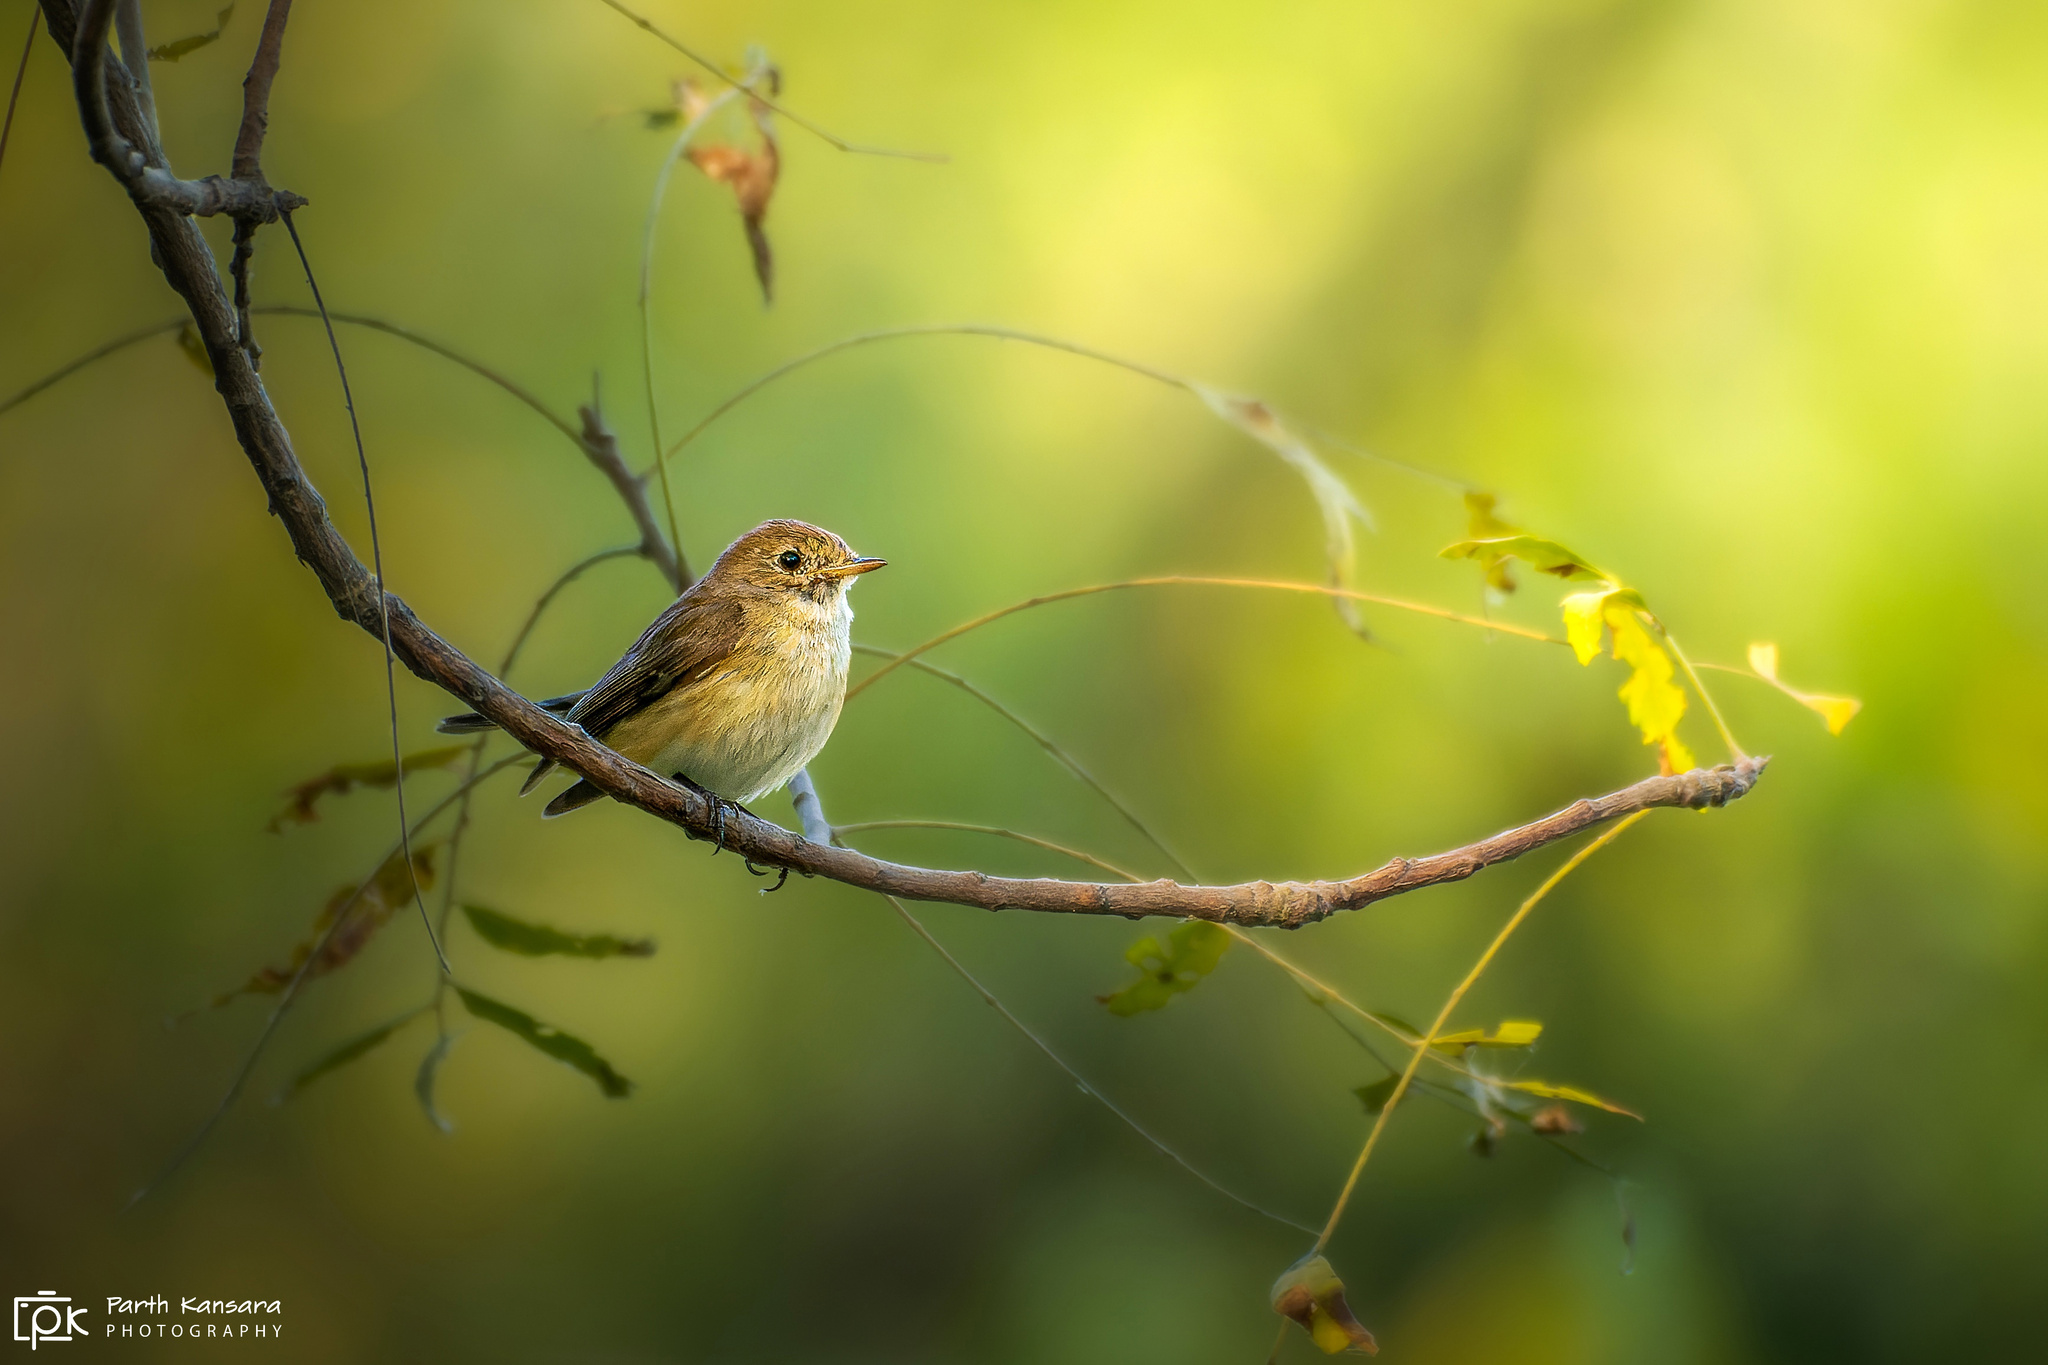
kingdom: Animalia
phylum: Chordata
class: Aves
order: Passeriformes
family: Muscicapidae
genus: Ficedula
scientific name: Ficedula parva
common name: Red-breasted flycatcher
